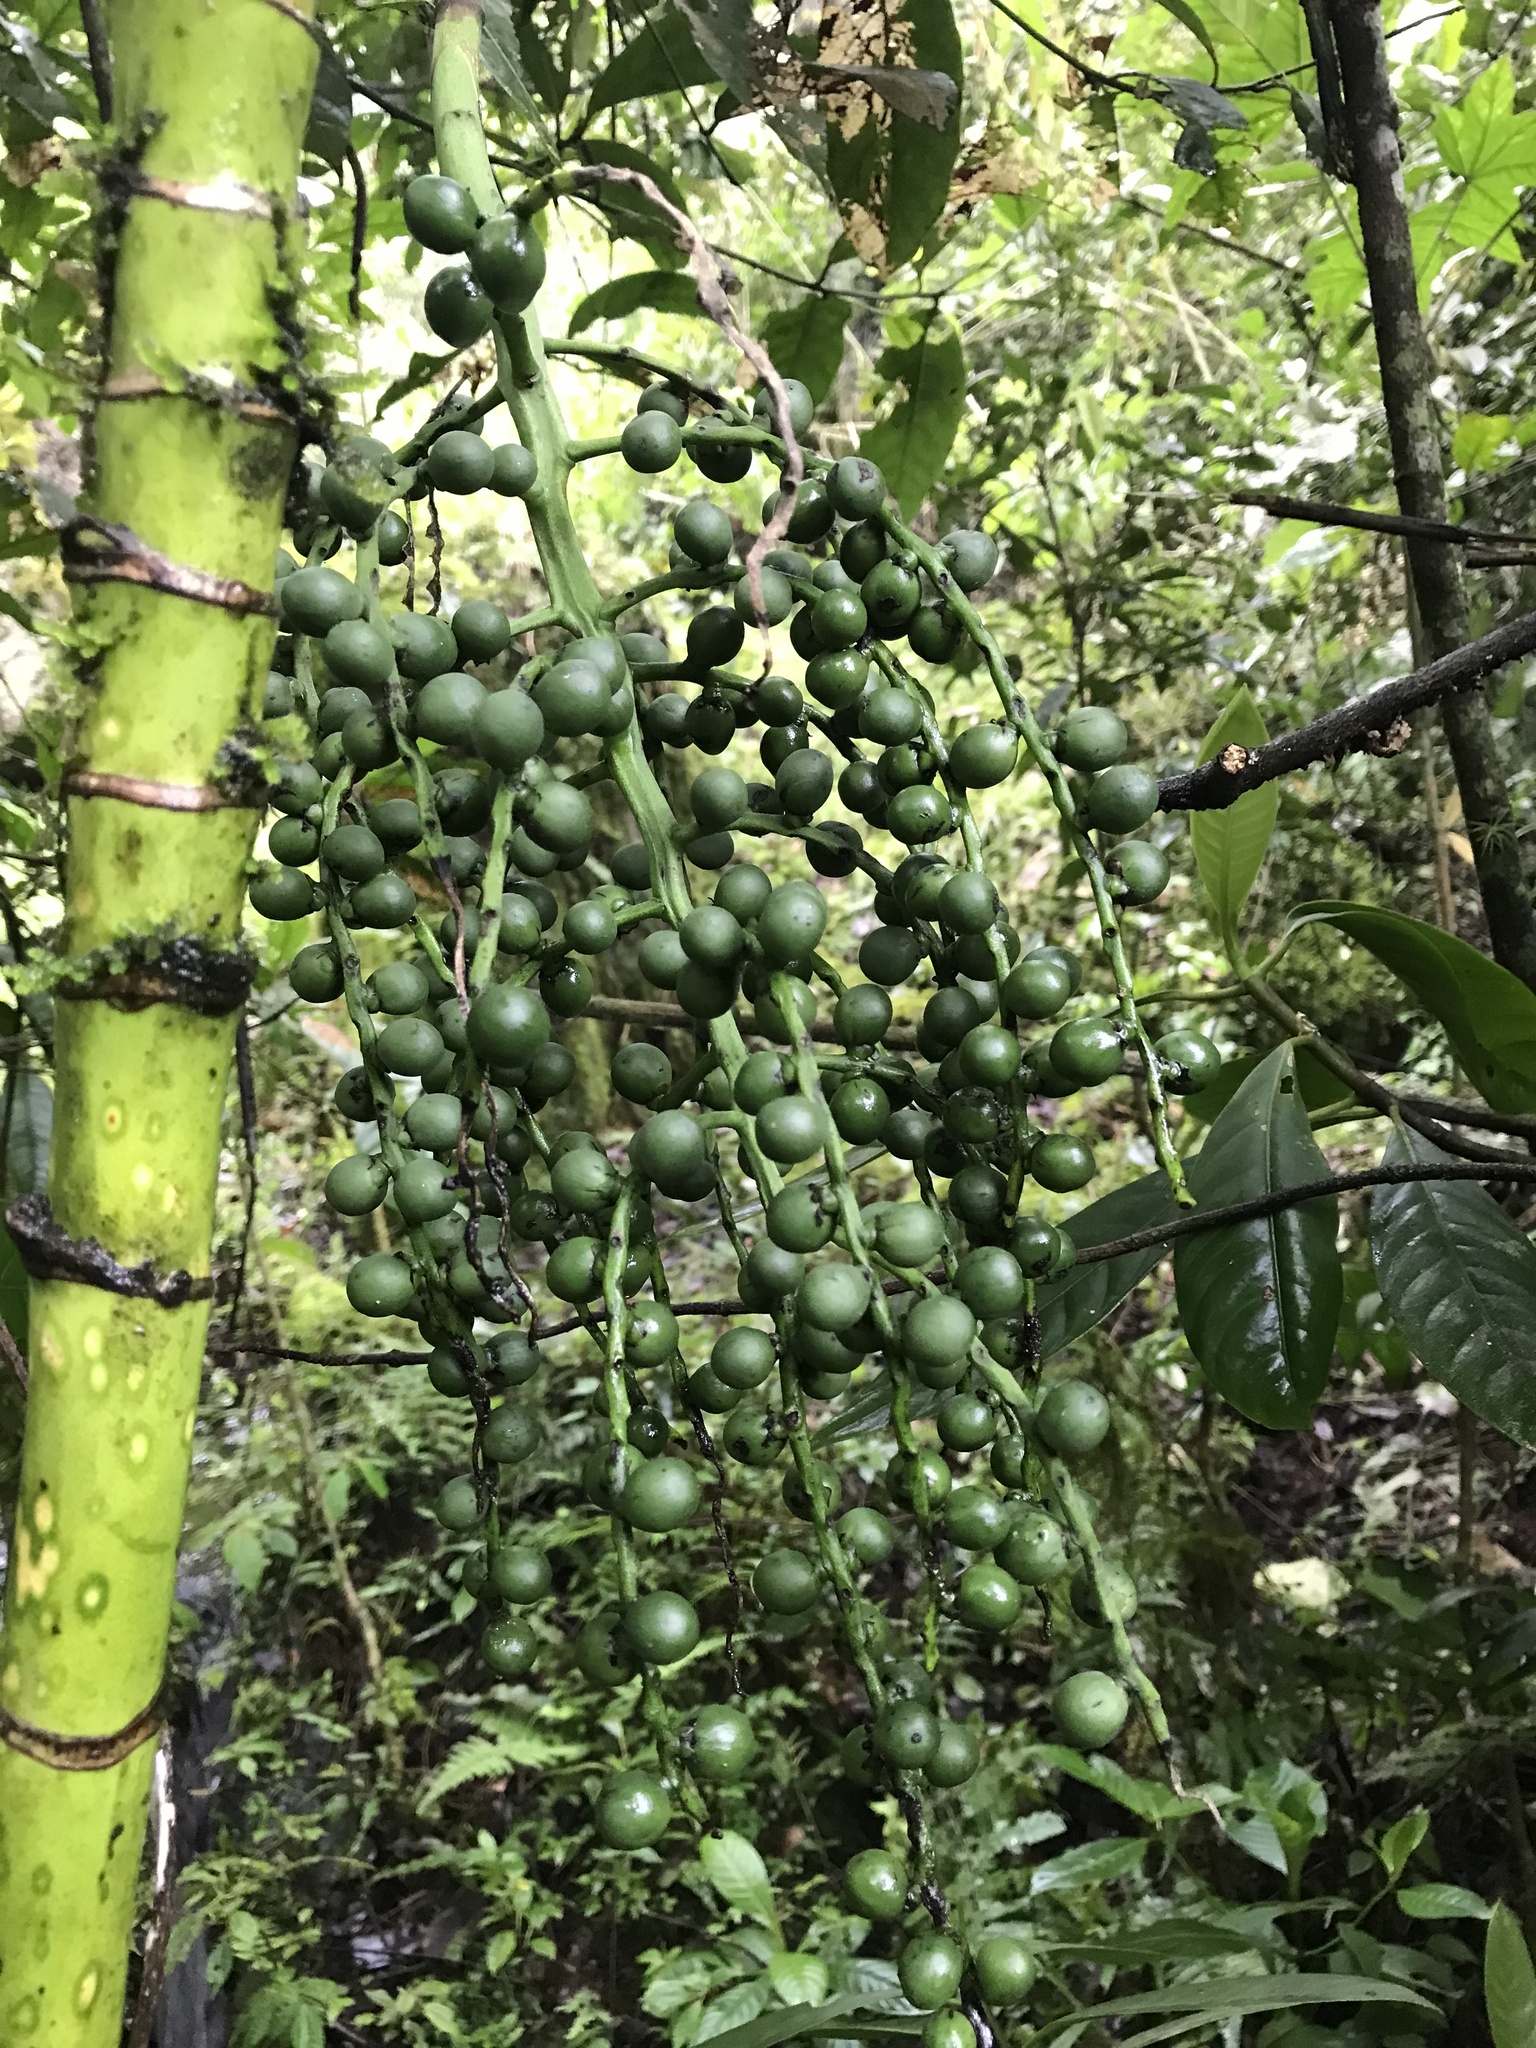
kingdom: Plantae
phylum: Tracheophyta
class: Liliopsida
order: Arecales
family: Arecaceae
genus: Chamaedorea
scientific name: Chamaedorea linearis
